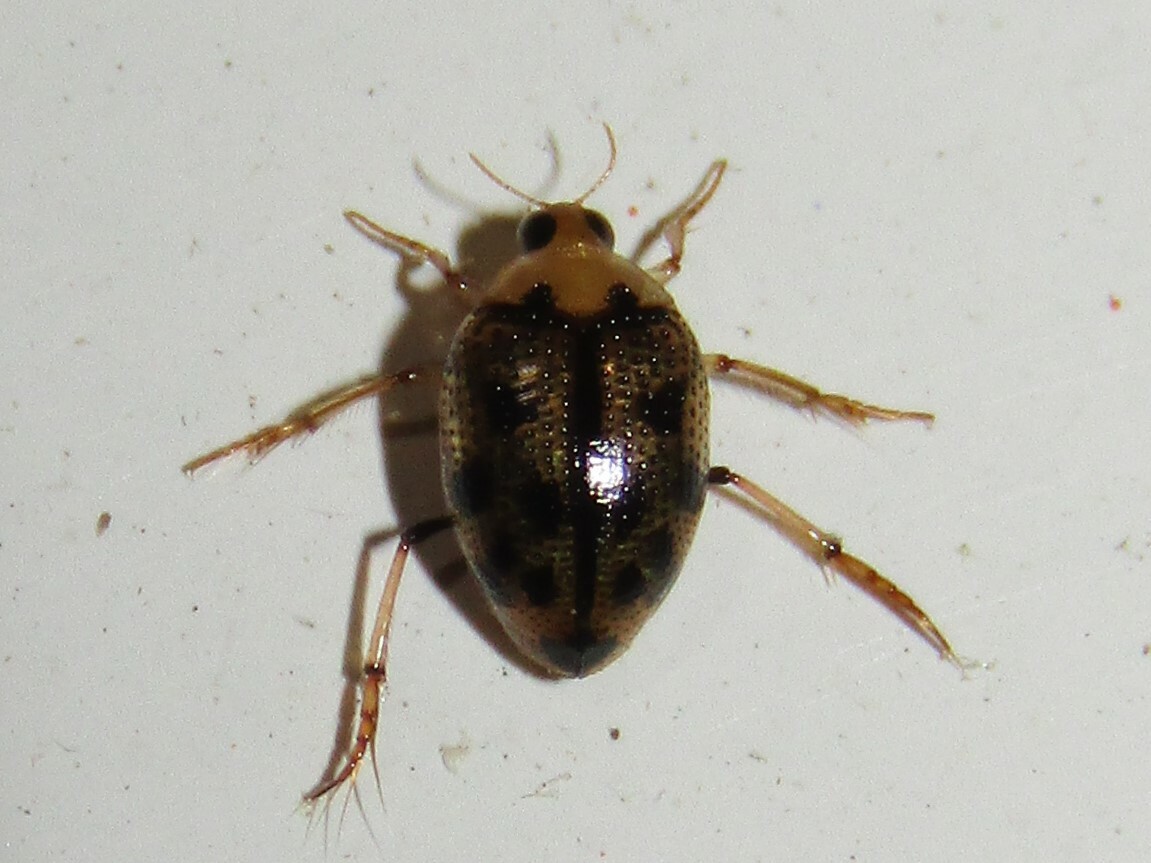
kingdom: Animalia
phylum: Arthropoda
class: Insecta
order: Coleoptera
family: Haliplidae
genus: Peltodytes
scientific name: Peltodytes
